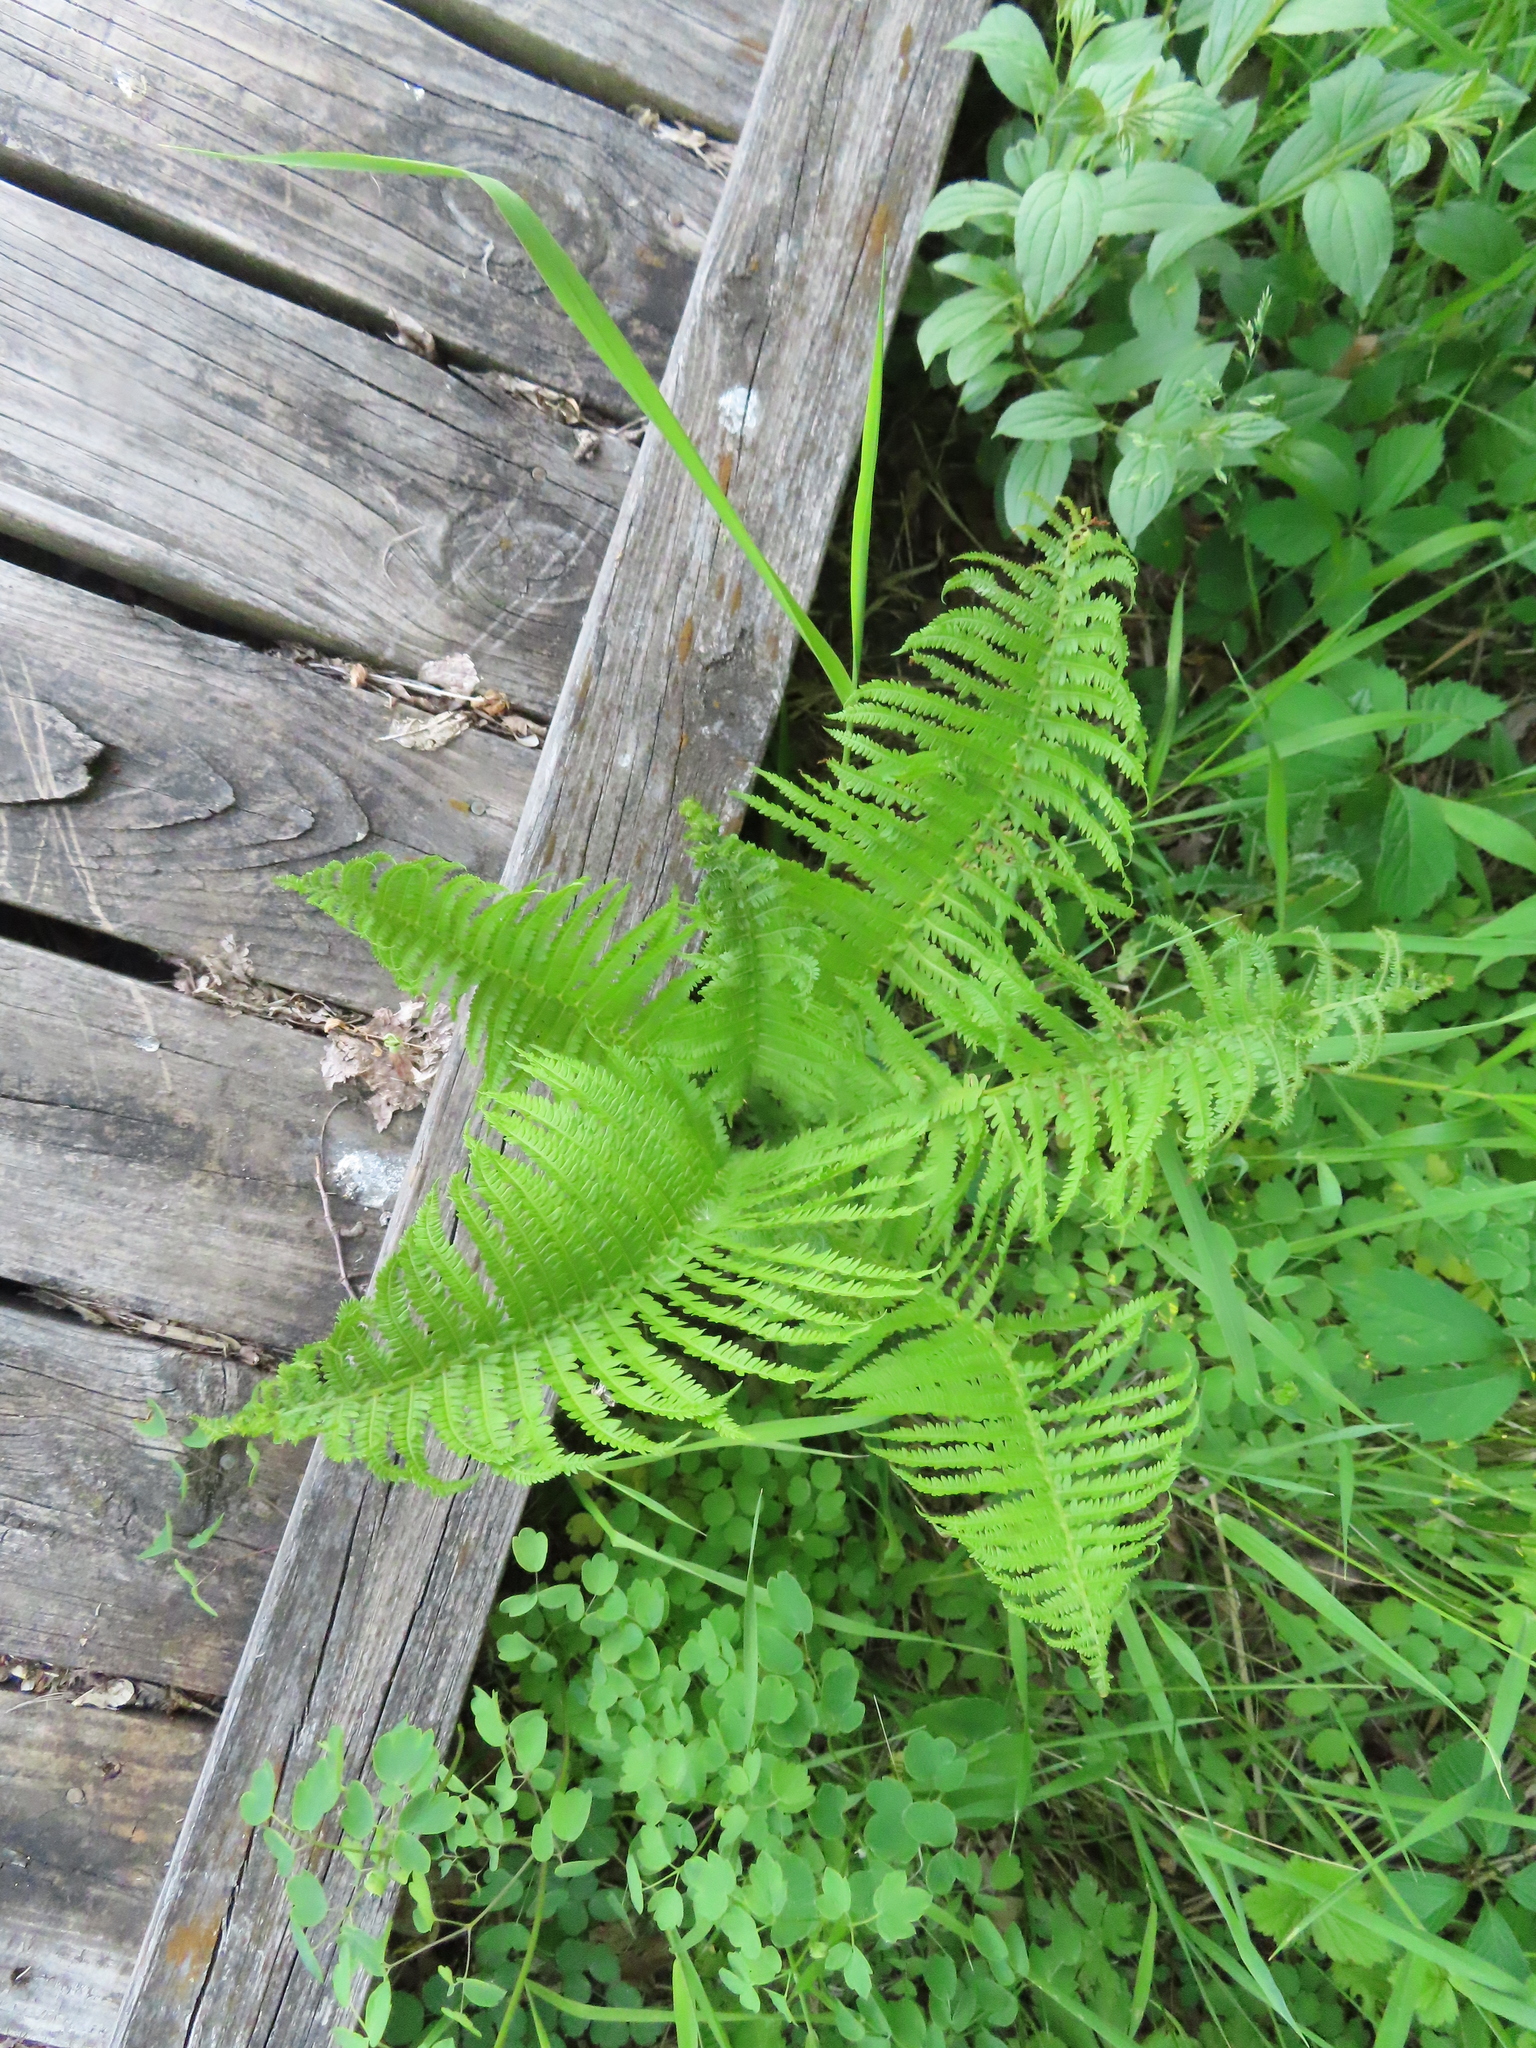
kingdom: Plantae
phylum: Tracheophyta
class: Polypodiopsida
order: Polypodiales
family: Onocleaceae
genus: Matteuccia
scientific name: Matteuccia struthiopteris
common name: Ostrich fern
